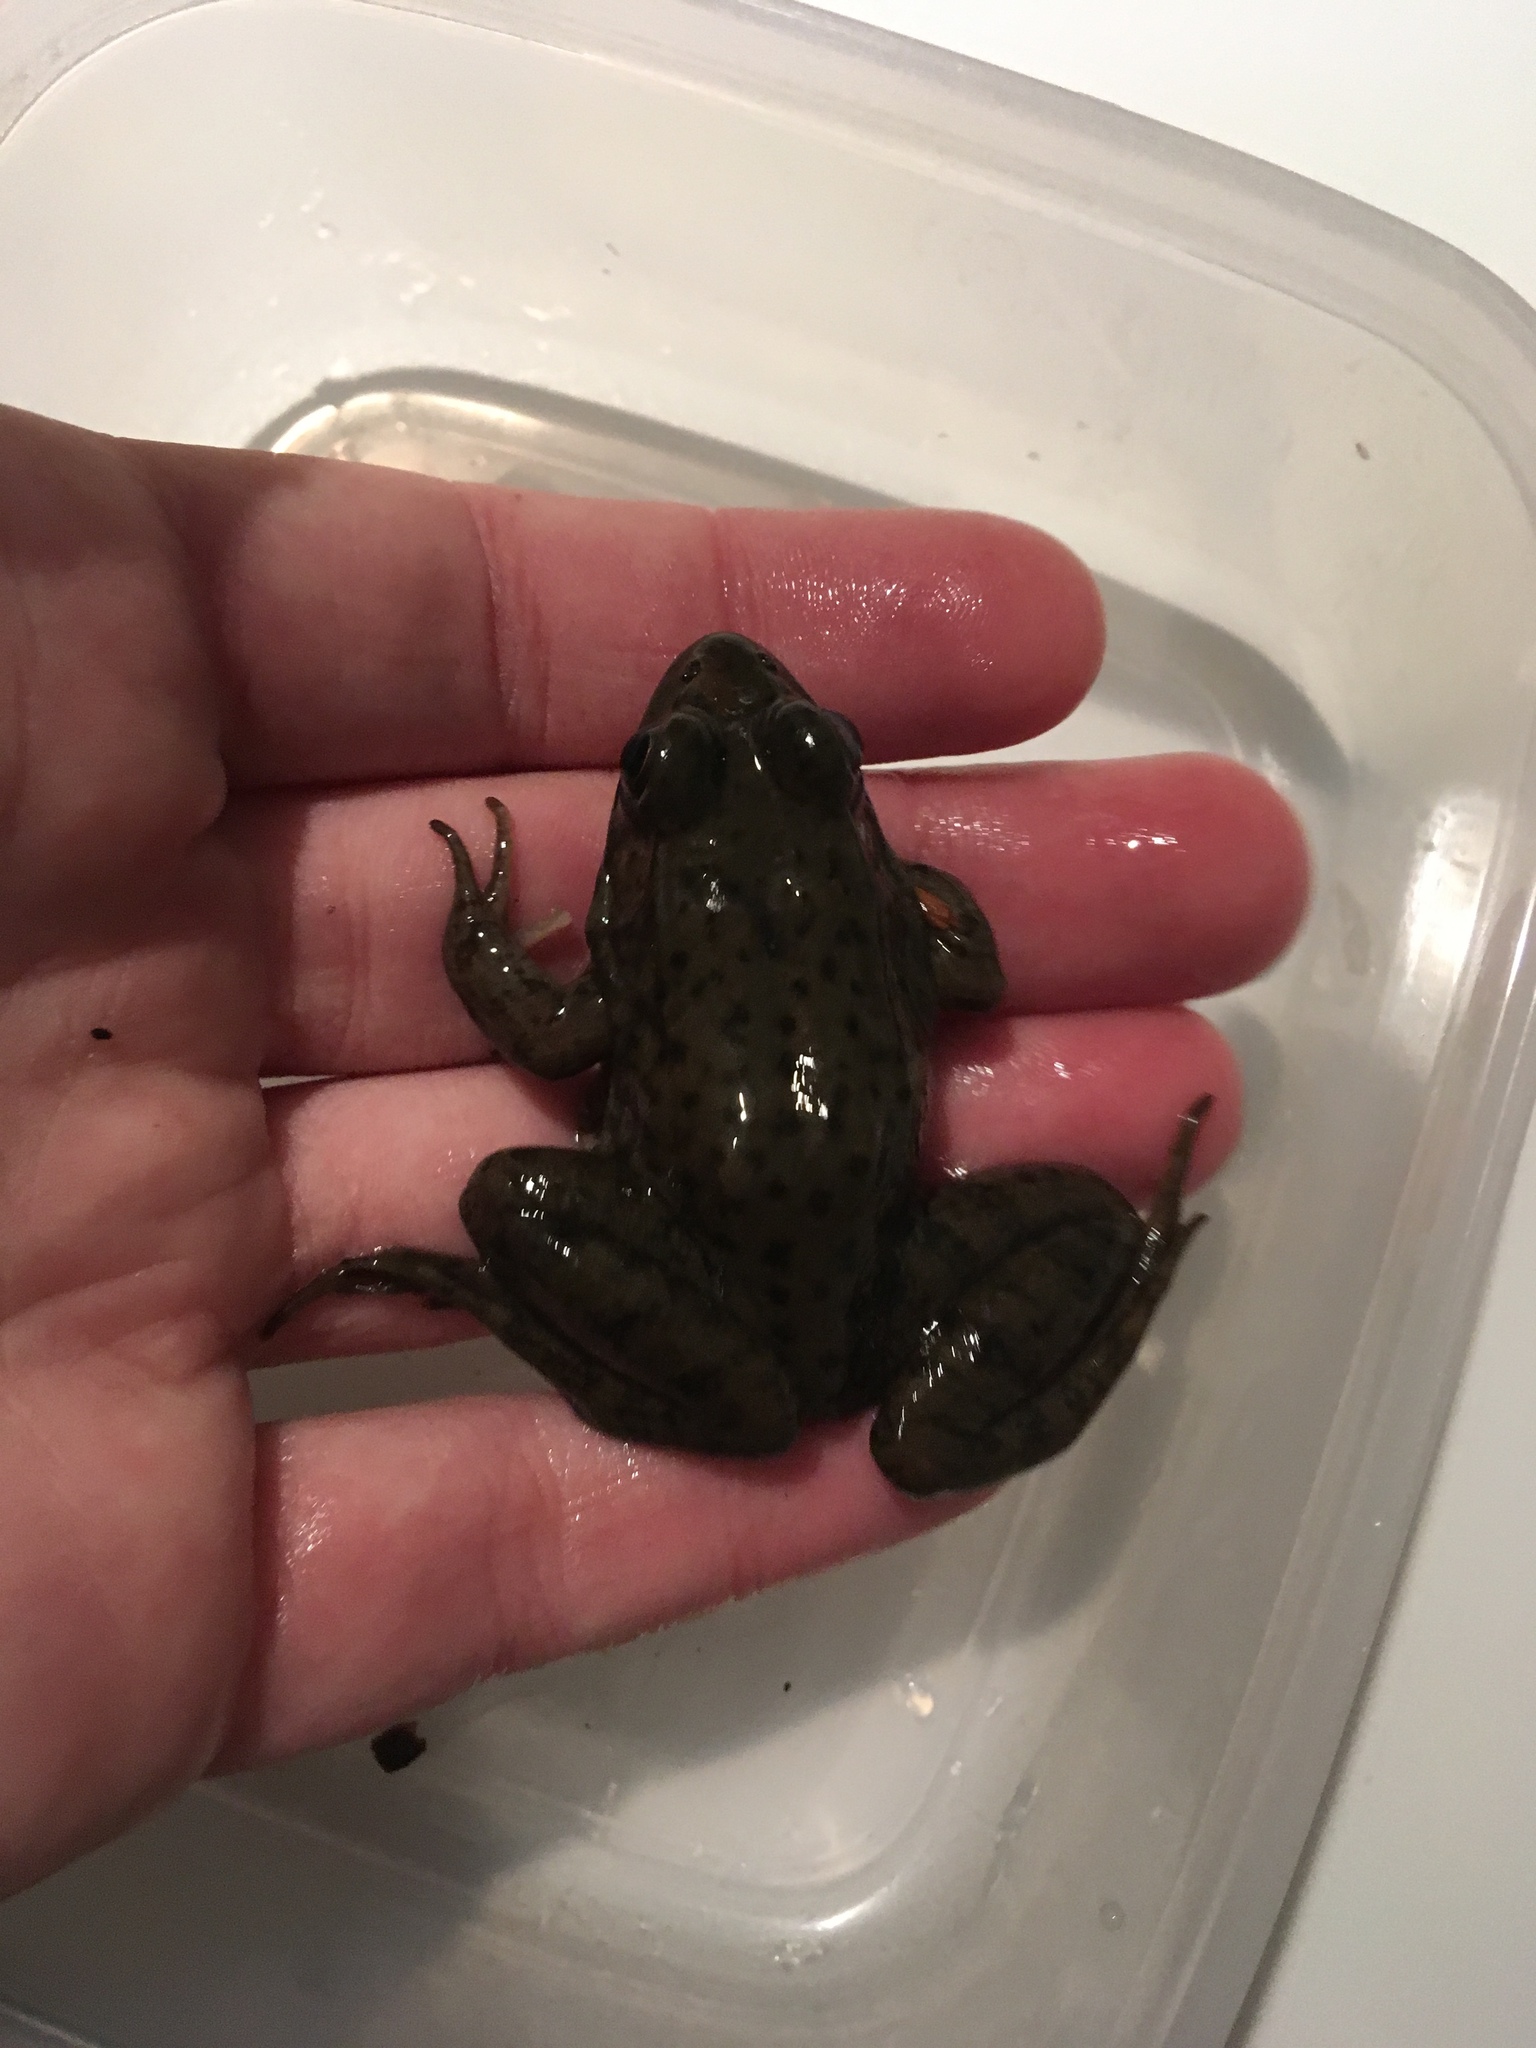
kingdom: Animalia
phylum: Chordata
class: Amphibia
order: Anura
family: Ranidae
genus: Lithobates
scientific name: Lithobates clamitans
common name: Green frog
